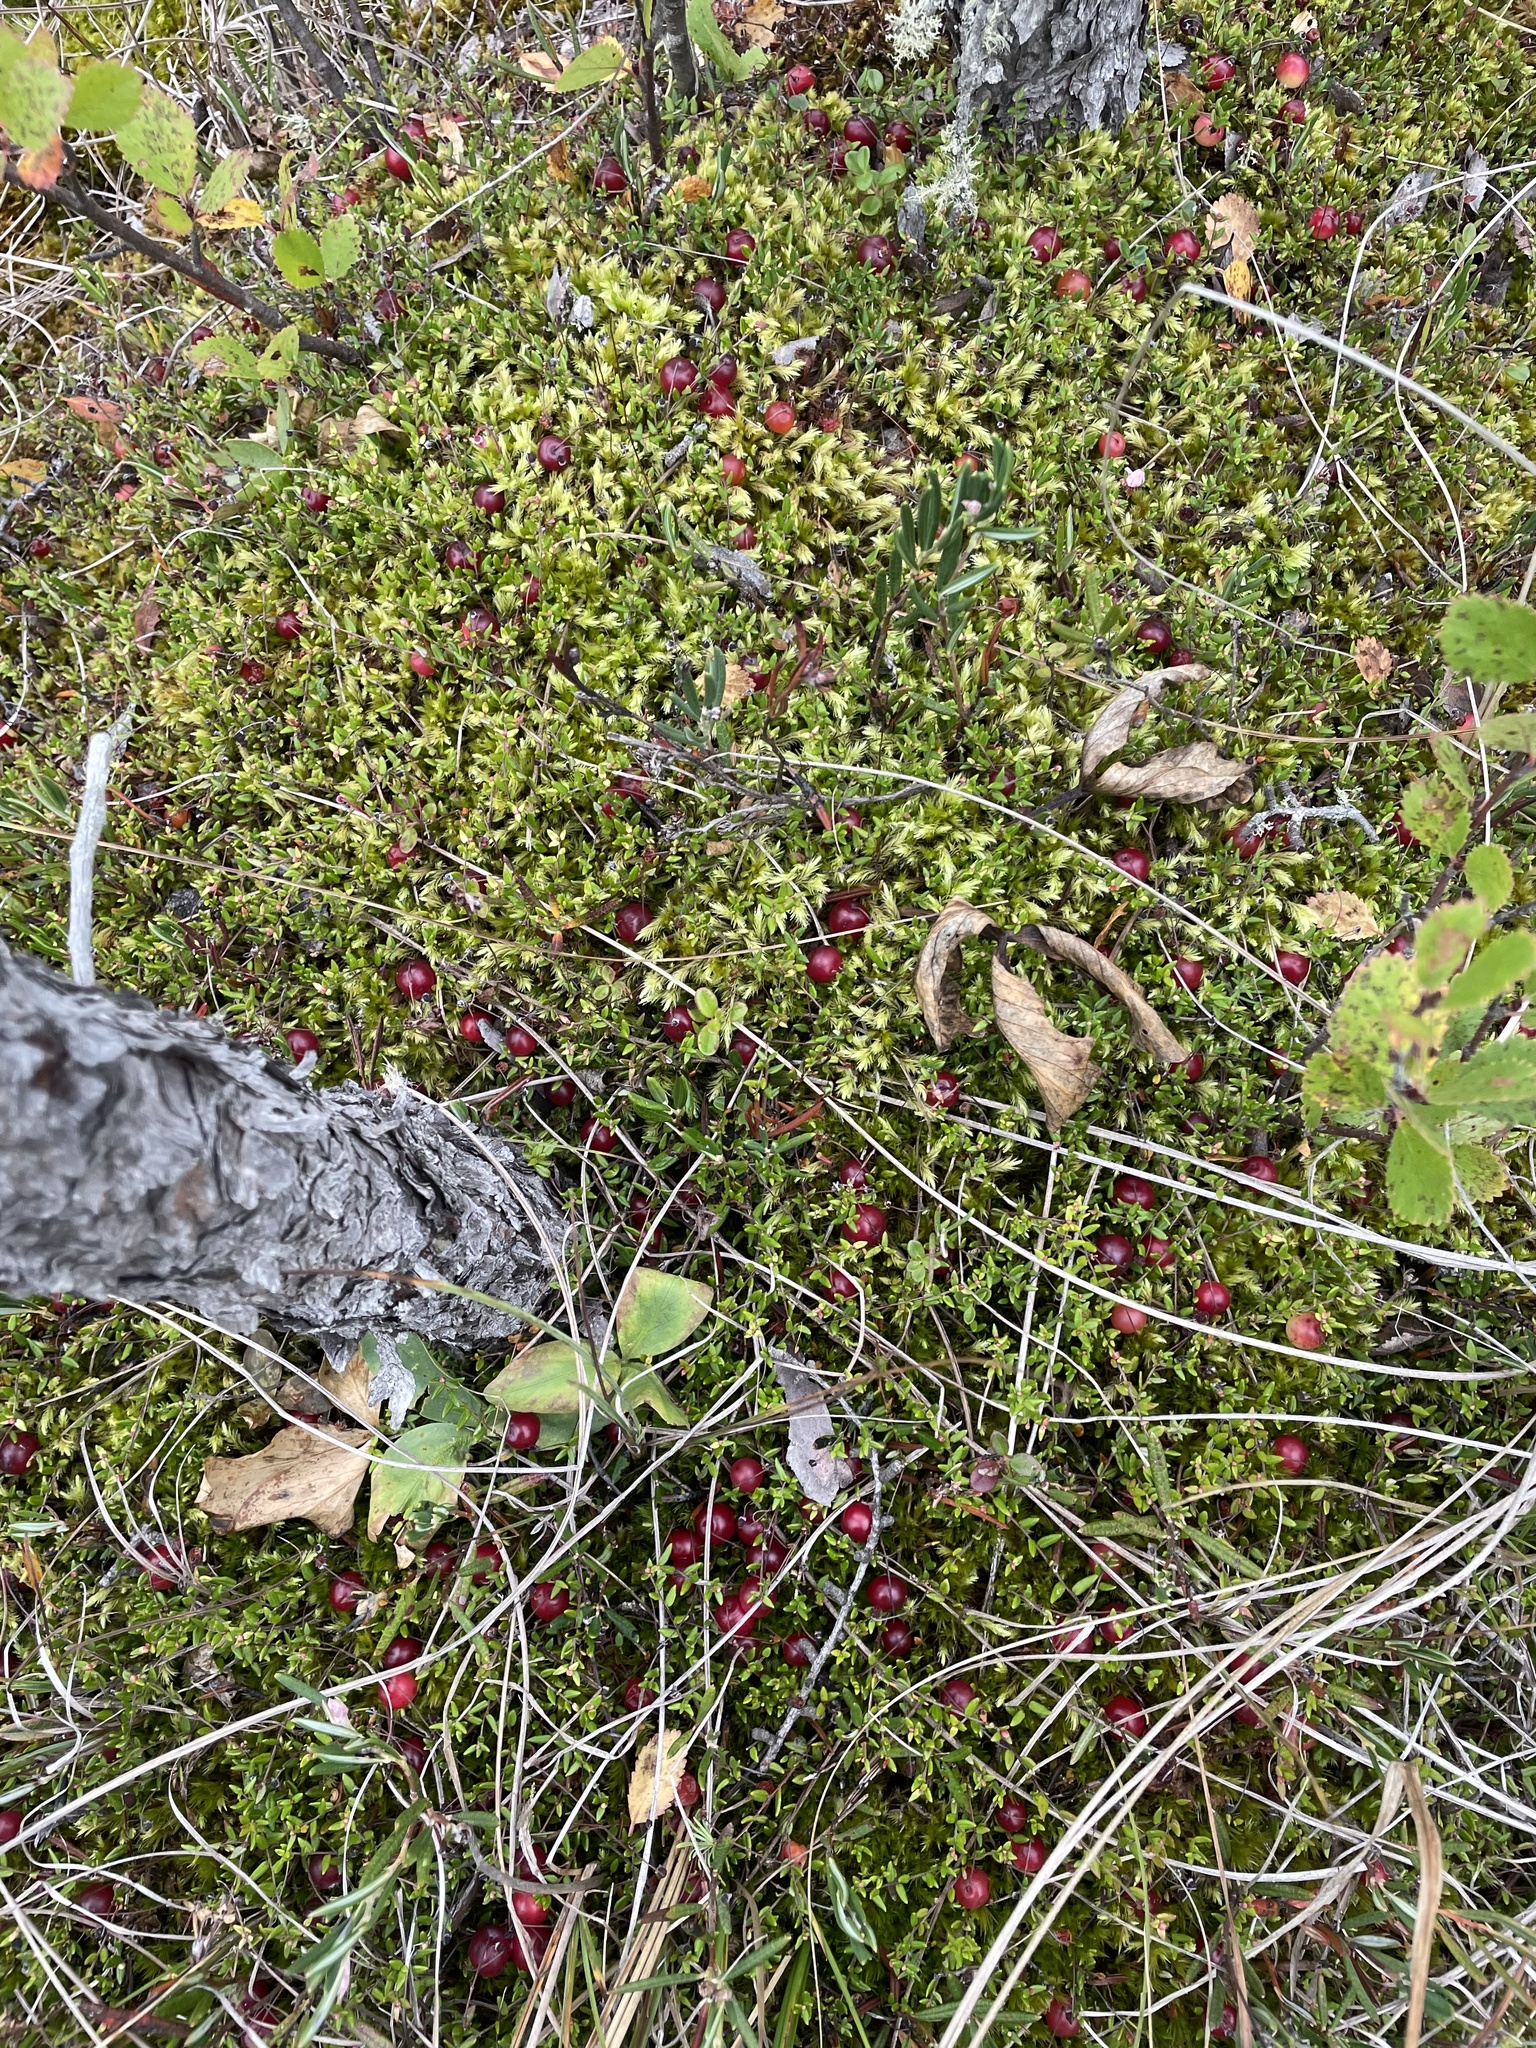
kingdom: Plantae
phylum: Tracheophyta
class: Magnoliopsida
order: Ericales
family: Ericaceae
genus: Vaccinium
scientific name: Vaccinium oxycoccos
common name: Cranberry
